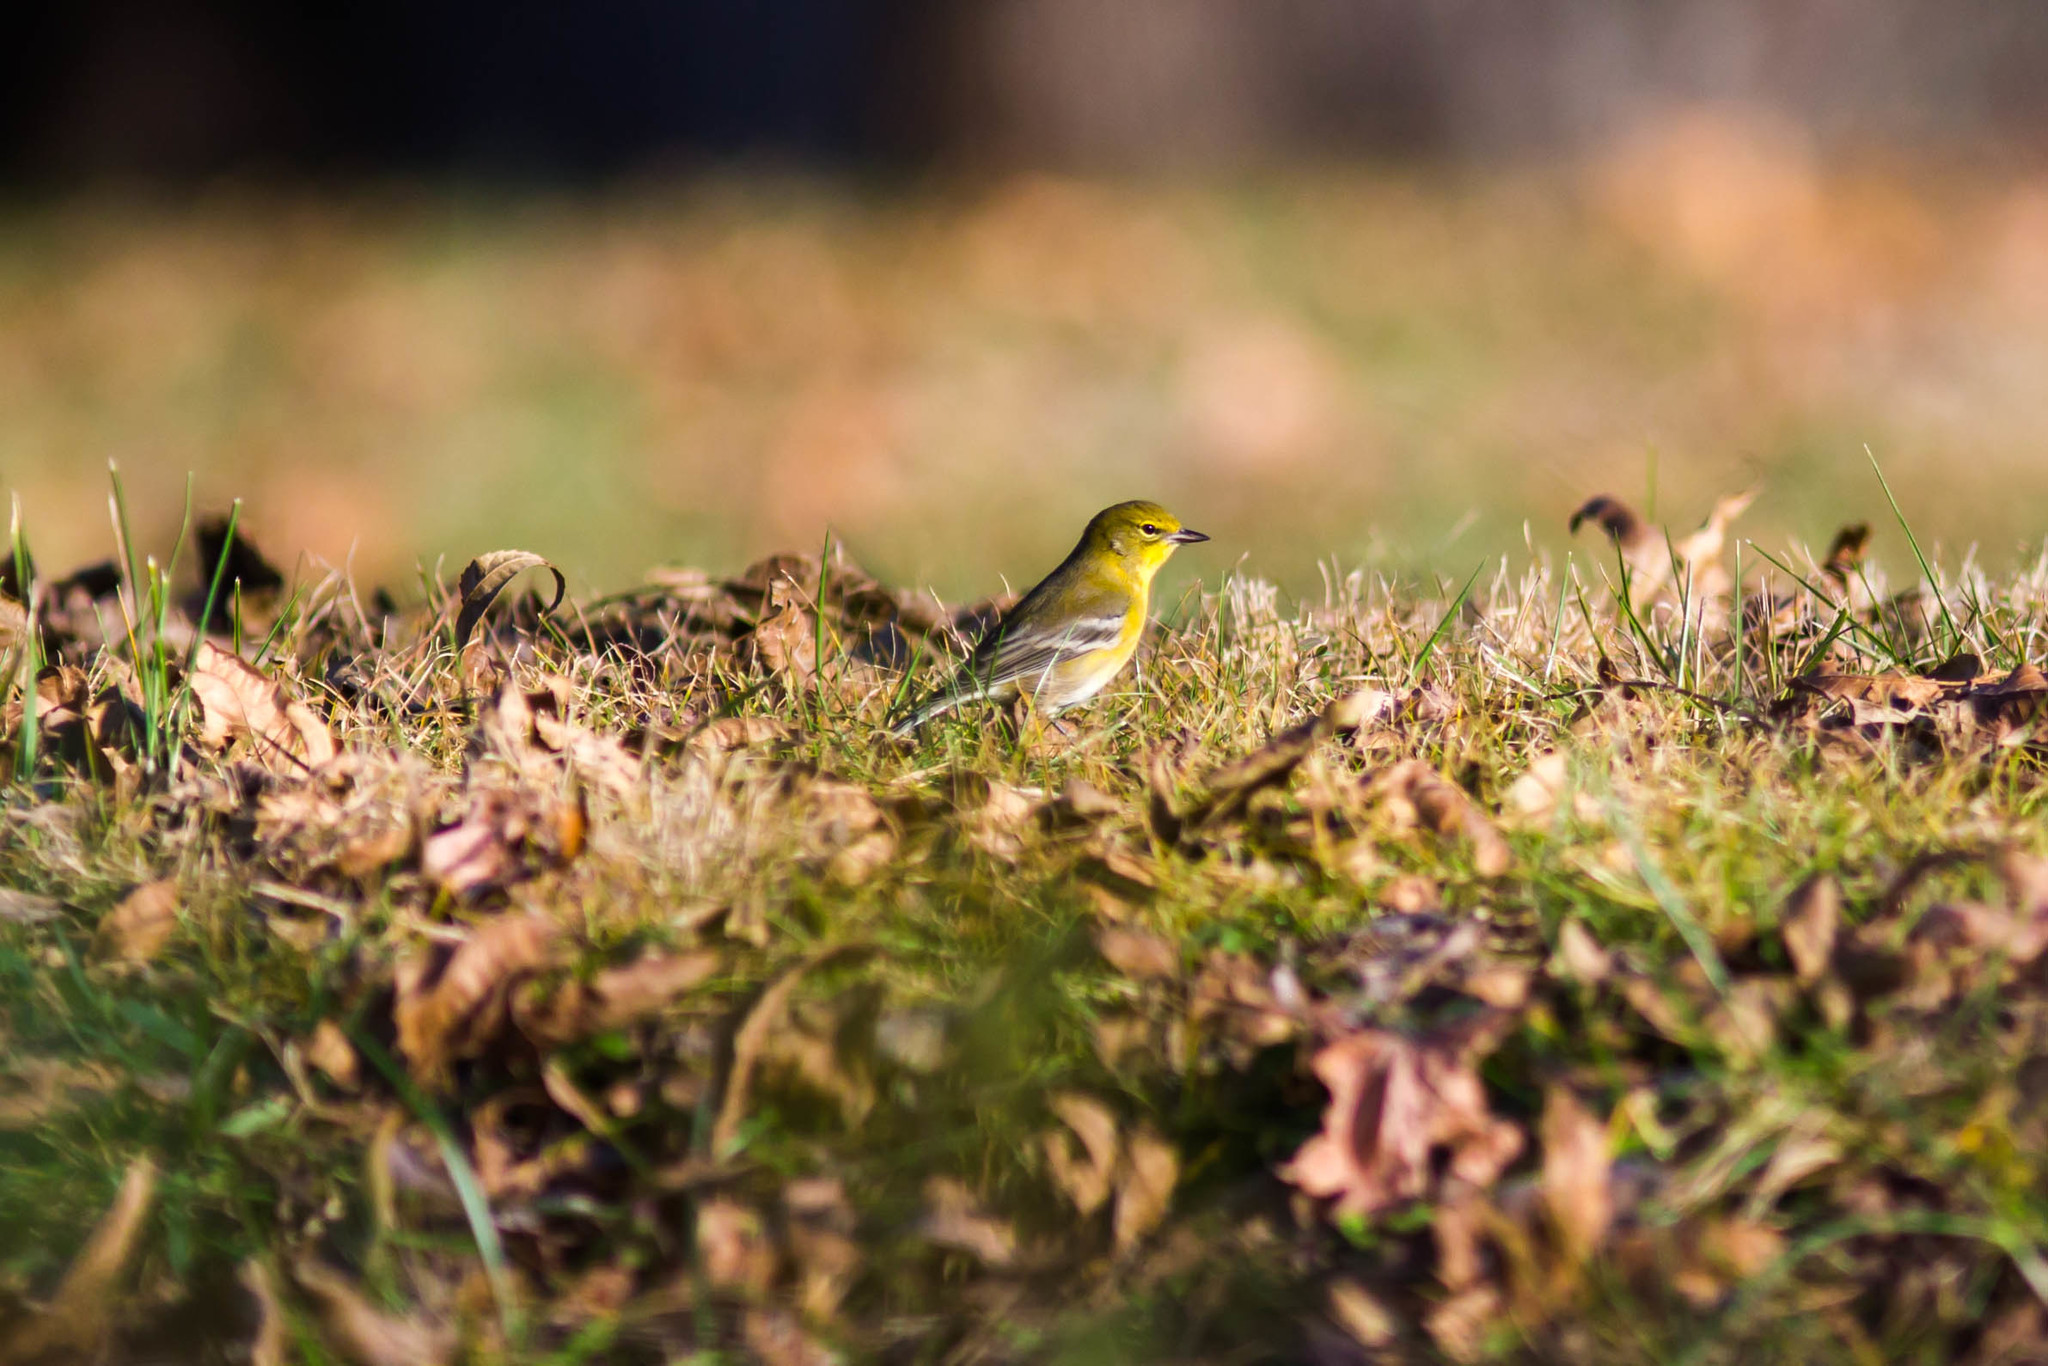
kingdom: Animalia
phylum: Chordata
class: Aves
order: Passeriformes
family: Parulidae
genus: Setophaga
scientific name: Setophaga pinus
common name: Pine warbler
